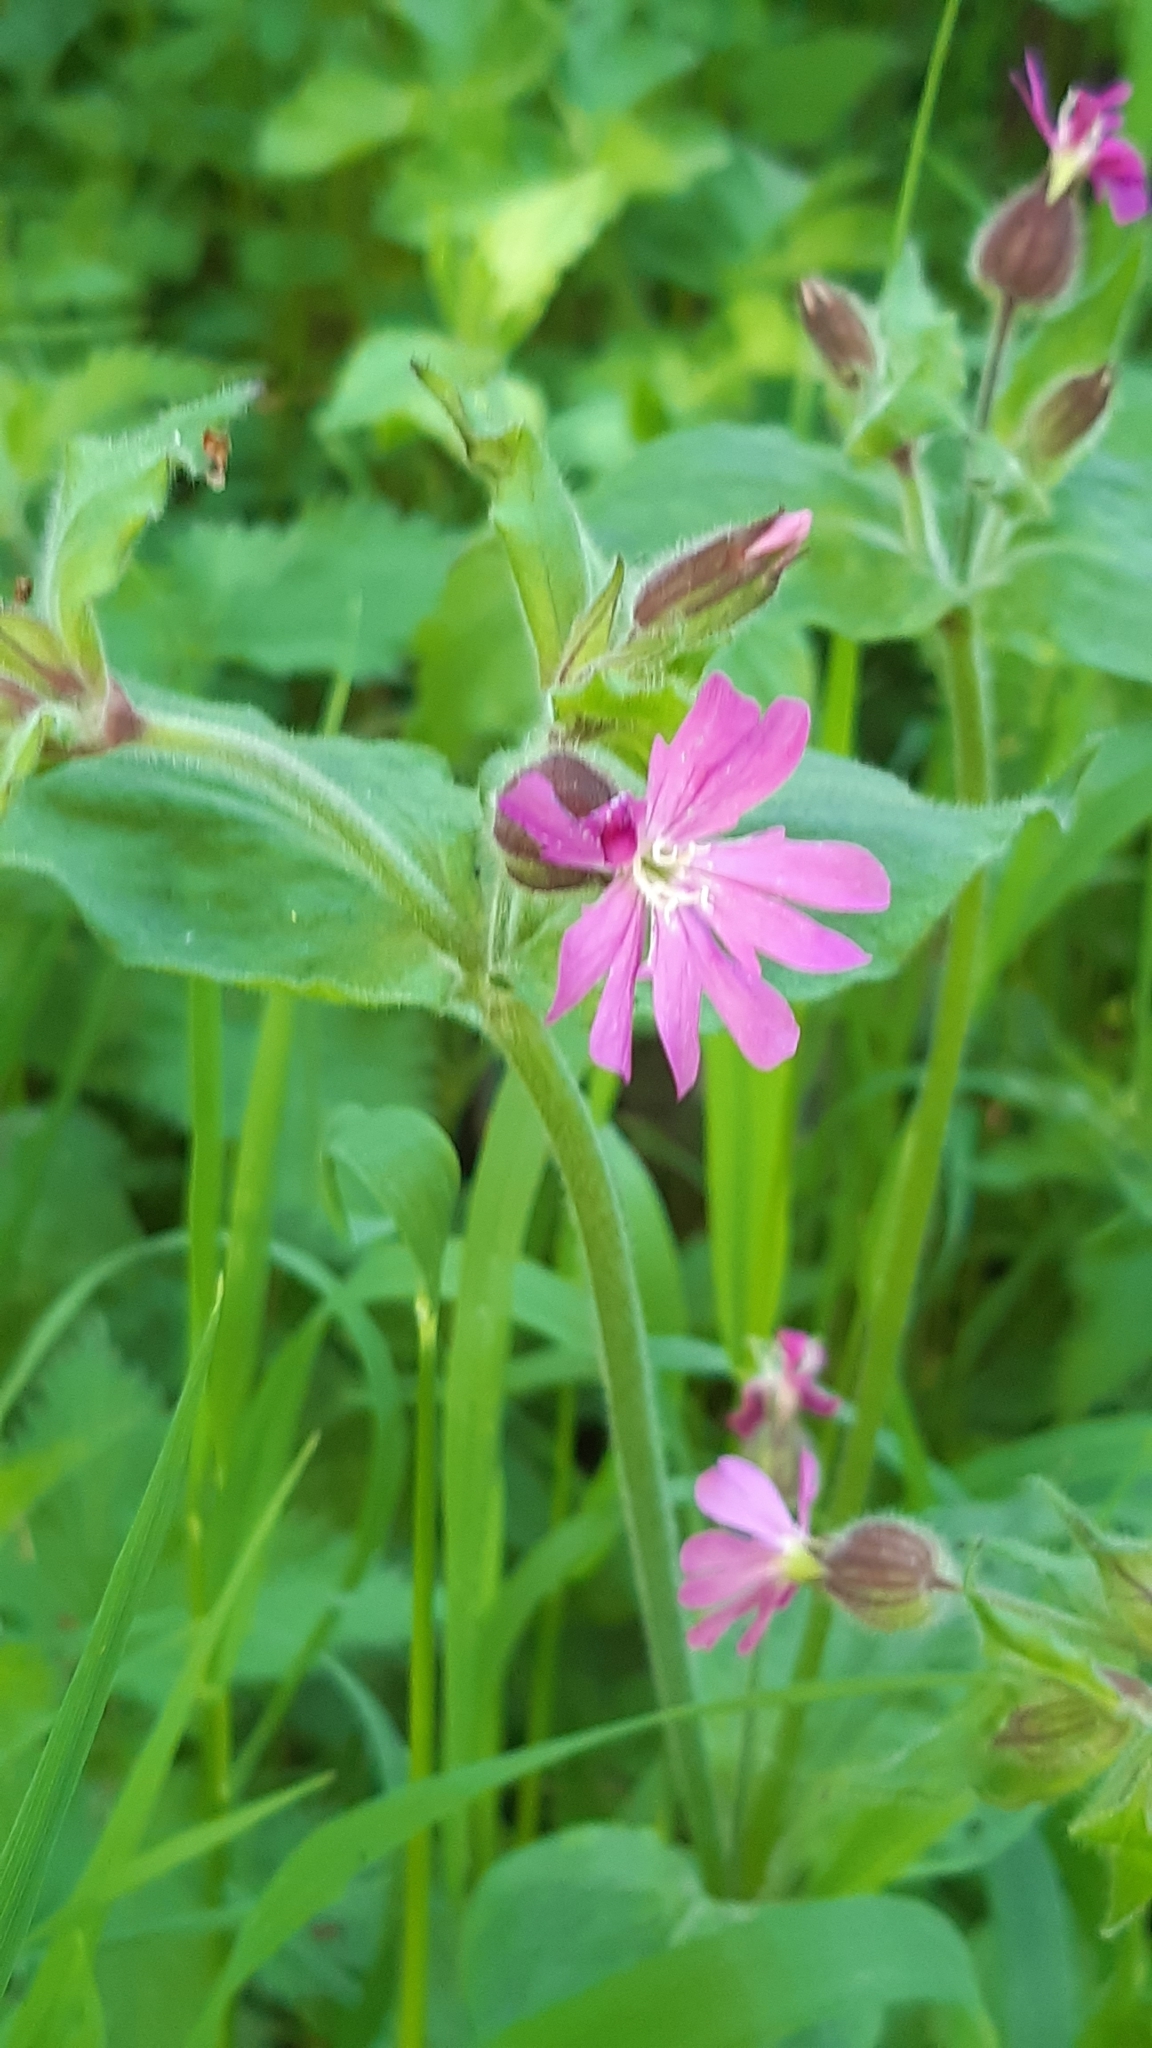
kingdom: Plantae
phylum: Tracheophyta
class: Magnoliopsida
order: Caryophyllales
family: Caryophyllaceae
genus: Silene
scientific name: Silene dioica
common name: Red campion
